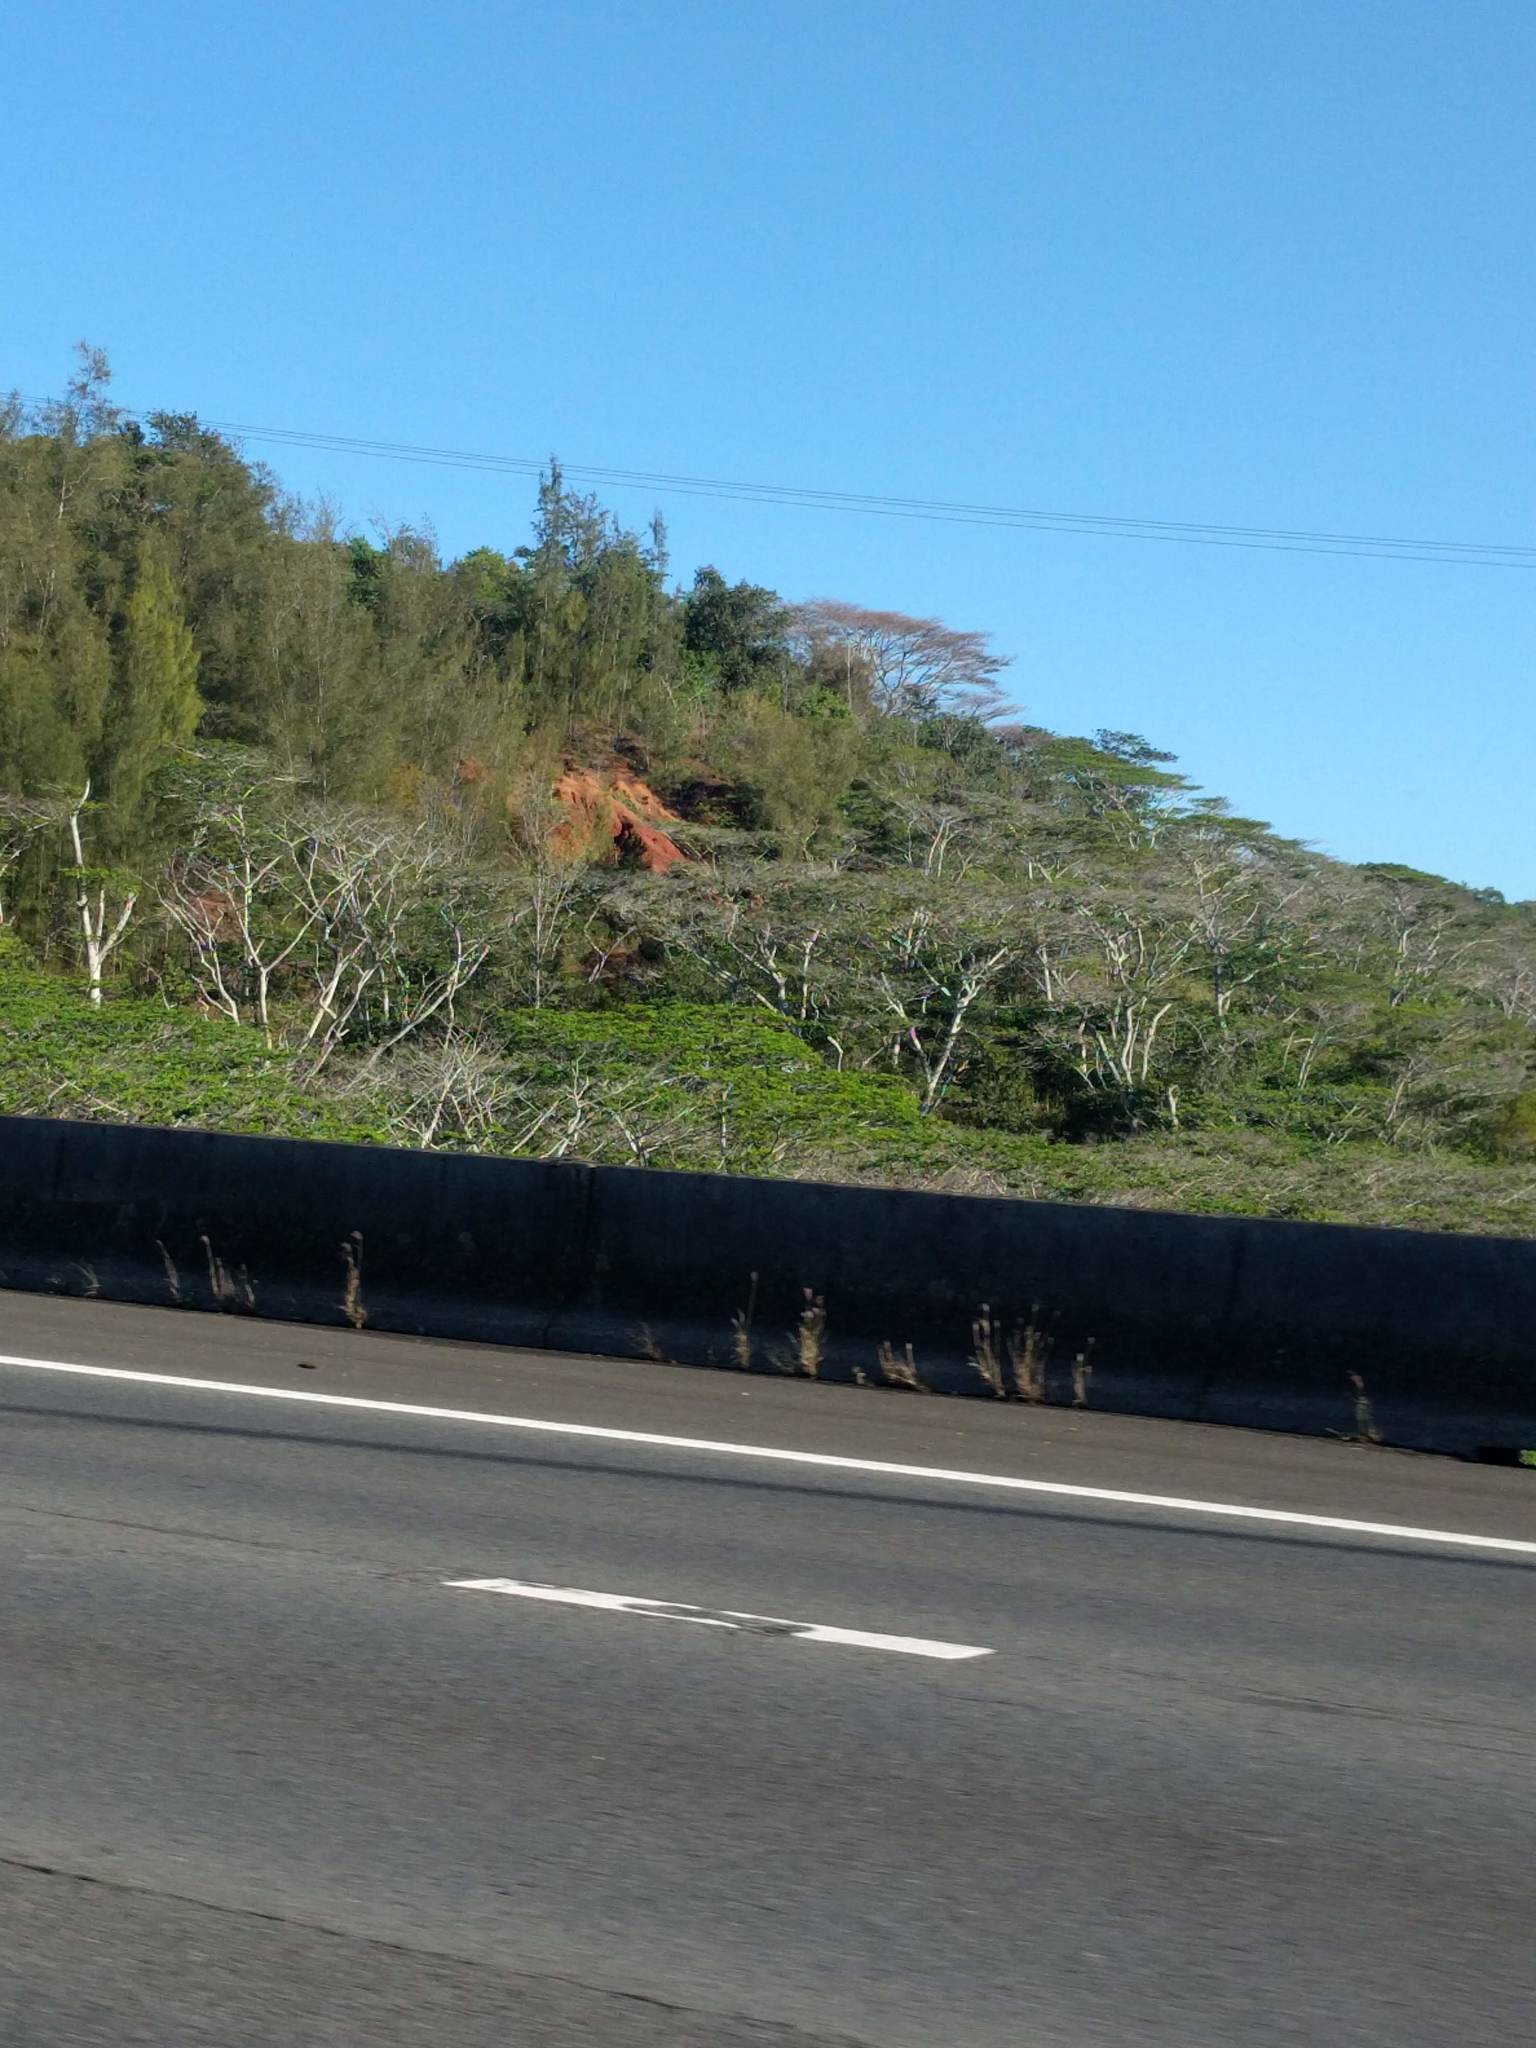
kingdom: Plantae
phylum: Tracheophyta
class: Magnoliopsida
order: Fabales
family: Fabaceae
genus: Falcataria
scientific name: Falcataria falcata
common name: Moluccan albizia
